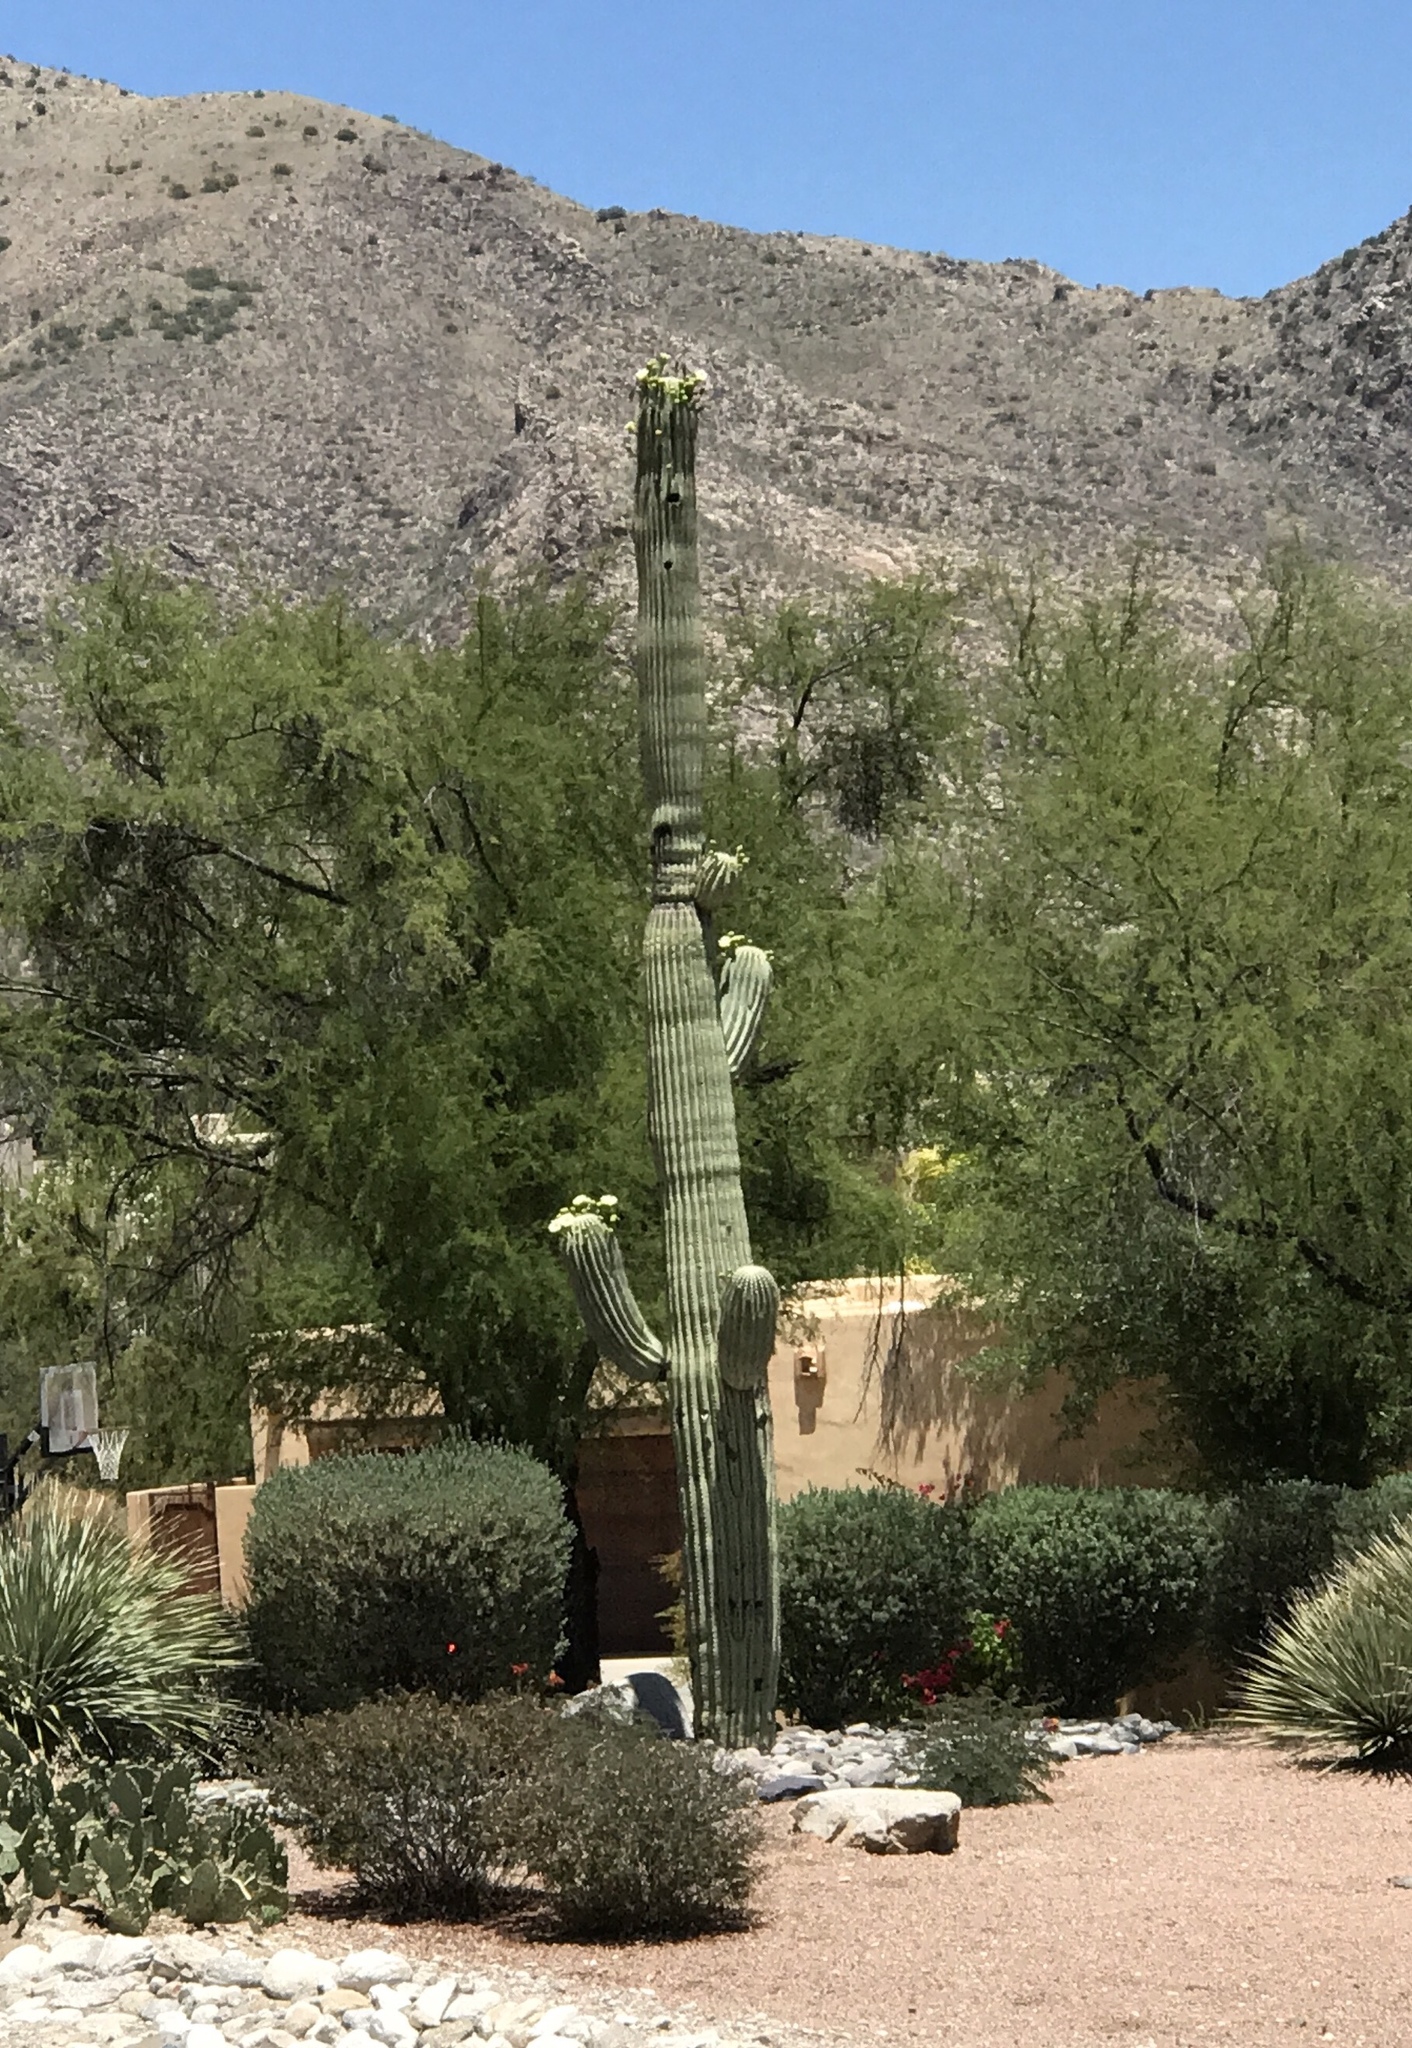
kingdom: Plantae
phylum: Tracheophyta
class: Magnoliopsida
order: Caryophyllales
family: Cactaceae
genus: Carnegiea
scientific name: Carnegiea gigantea
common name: Saguaro
